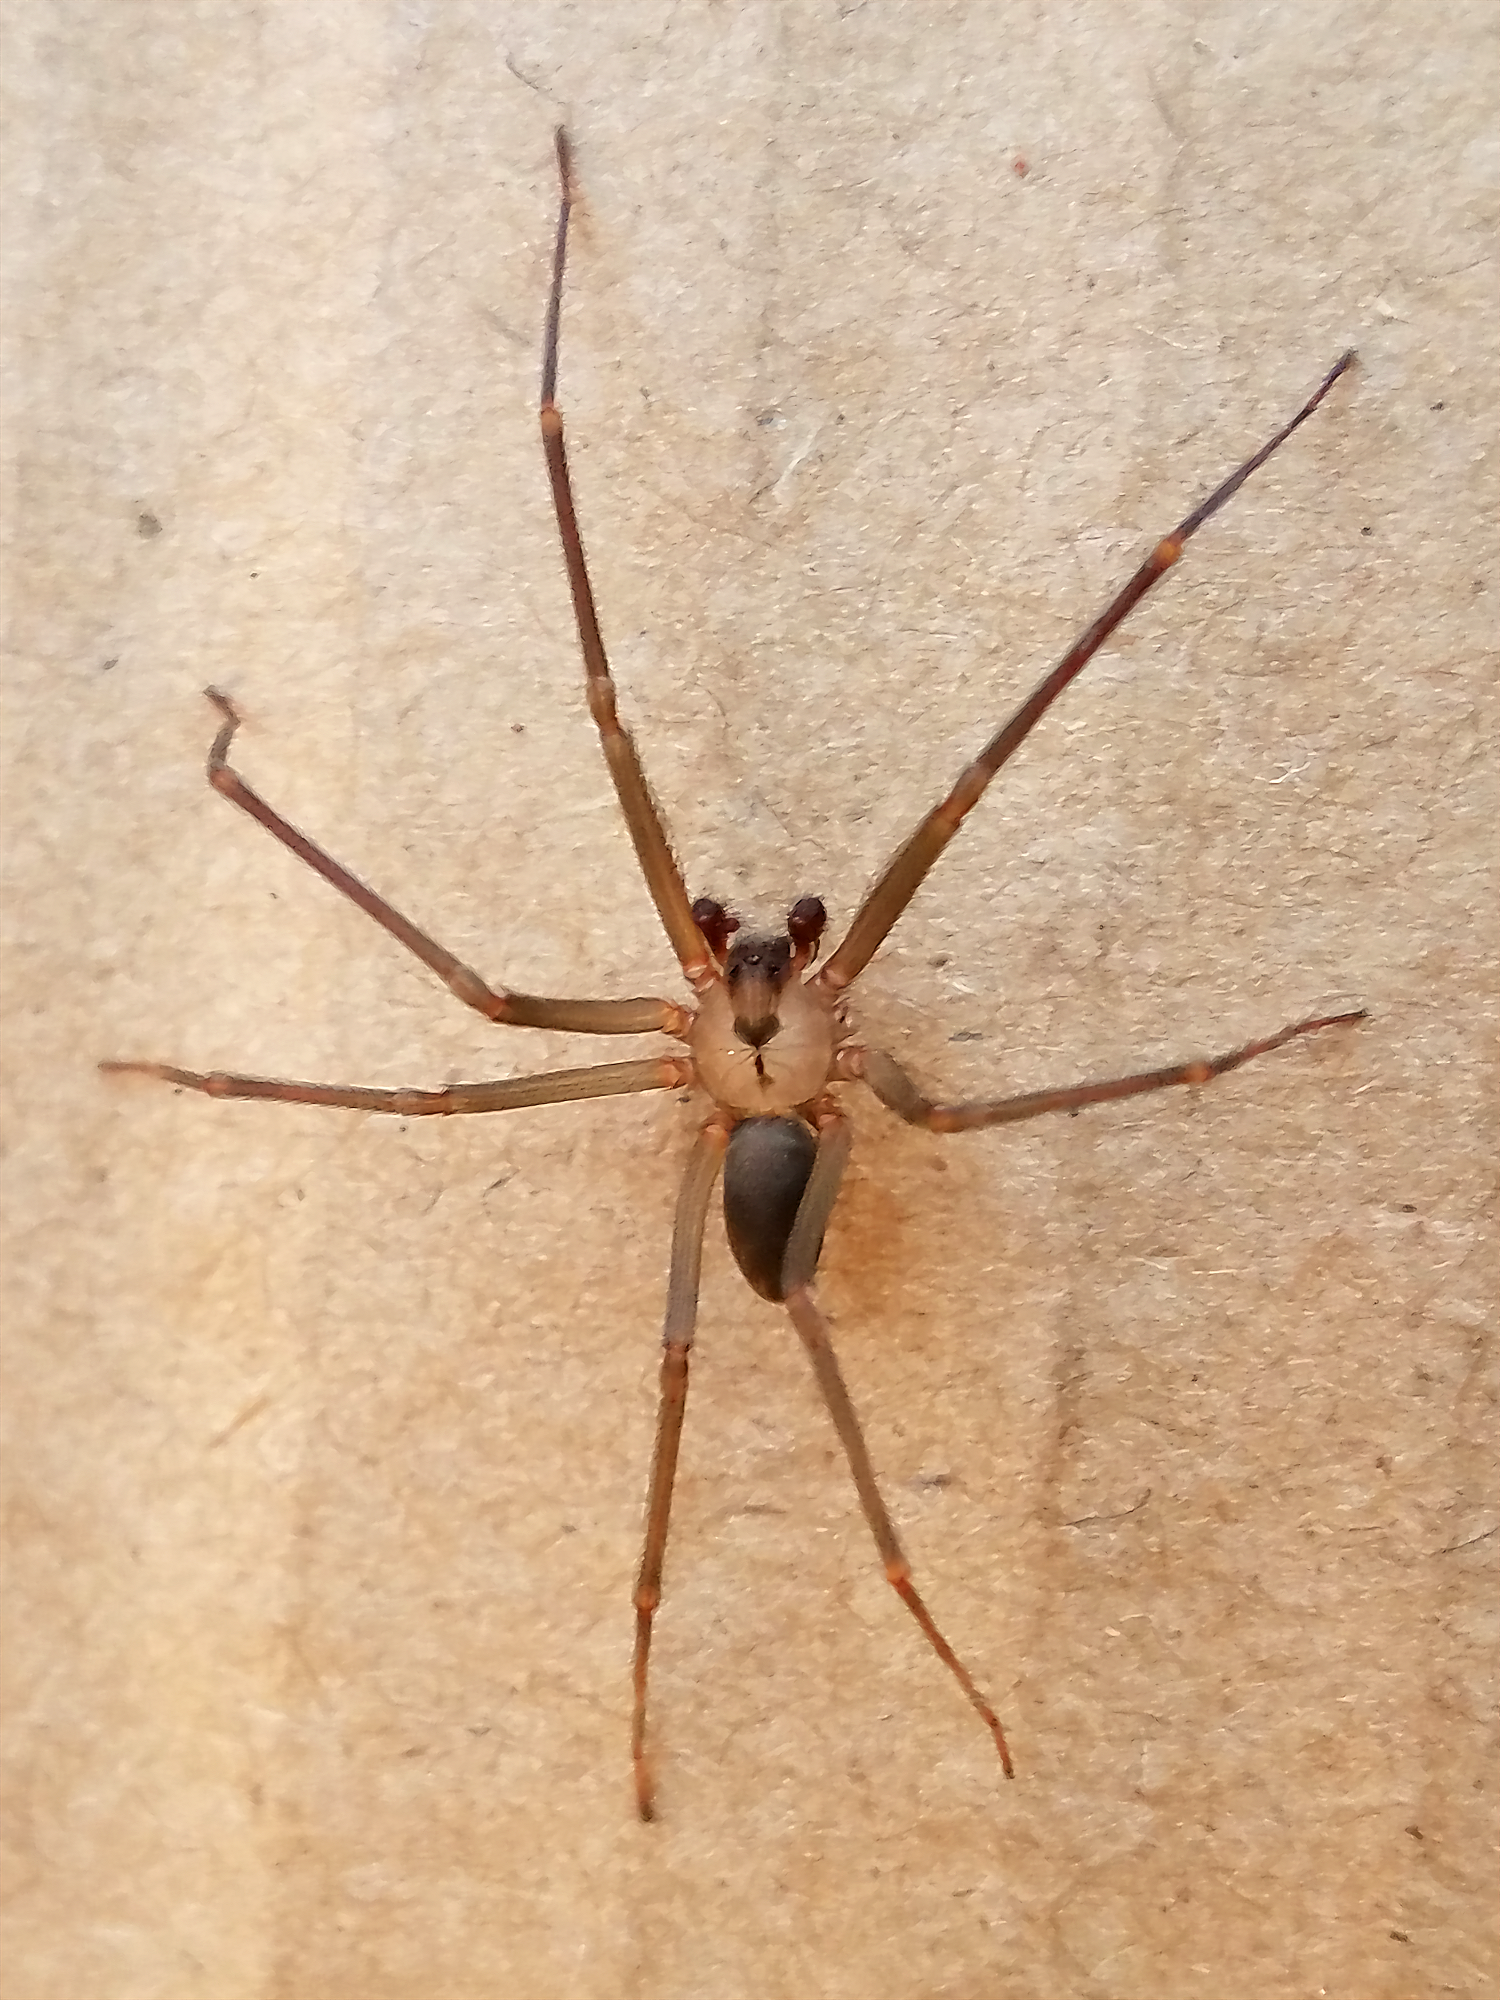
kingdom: Animalia
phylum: Arthropoda
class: Arachnida
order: Araneae
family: Sicariidae
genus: Loxosceles
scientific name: Loxosceles reclusa
